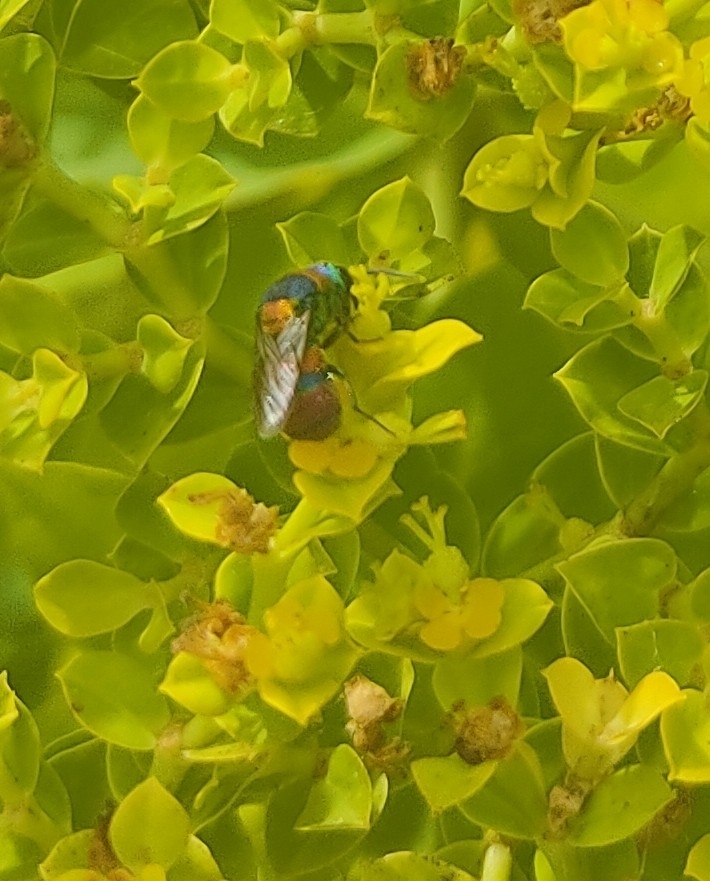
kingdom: Animalia
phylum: Arthropoda
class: Insecta
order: Hymenoptera
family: Chrysididae
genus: Chrysis
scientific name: Chrysis semicincta
